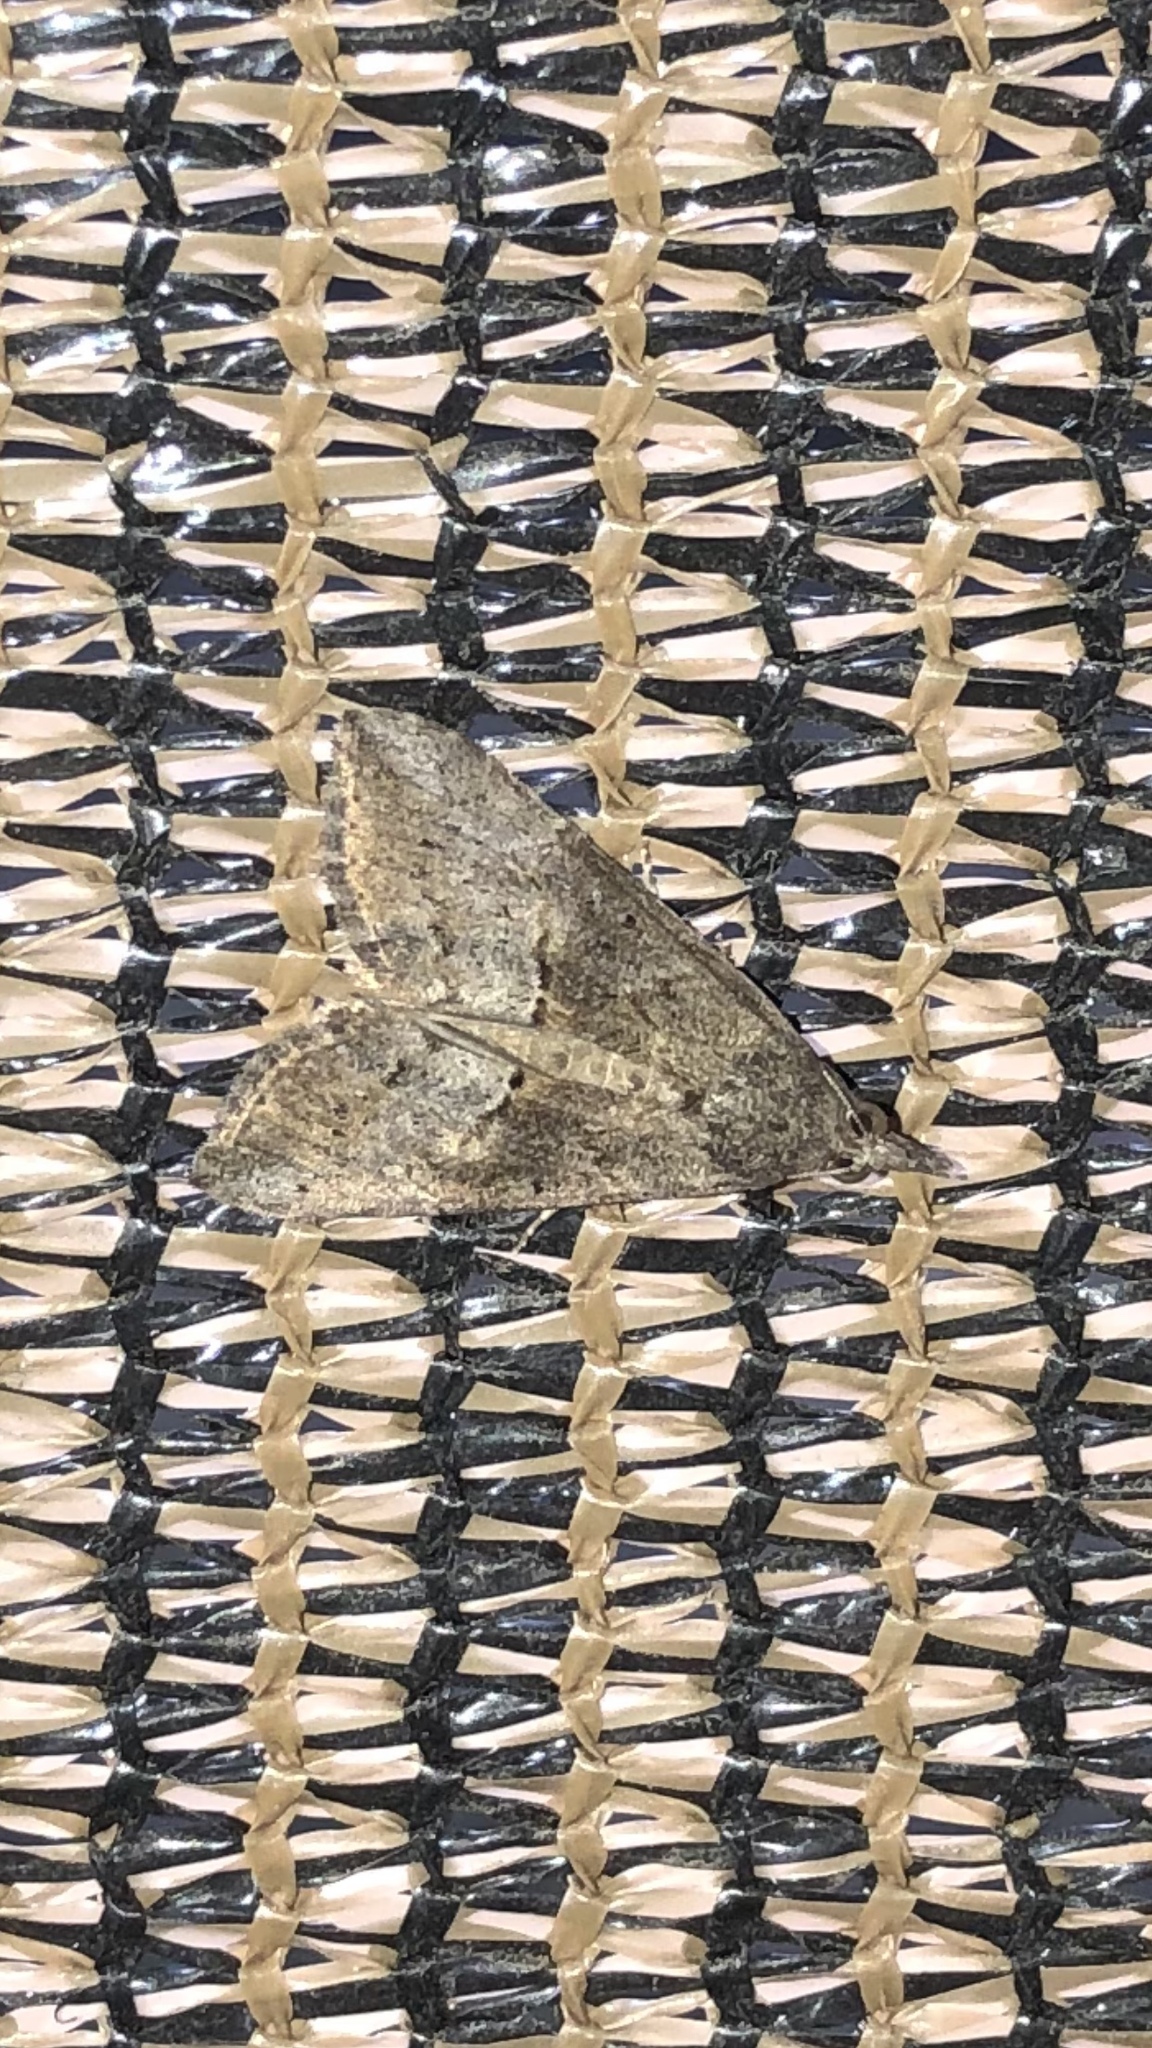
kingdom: Animalia
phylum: Arthropoda
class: Insecta
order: Lepidoptera
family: Erebidae
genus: Hypena
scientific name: Hypena scabra
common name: Green cloverworm
